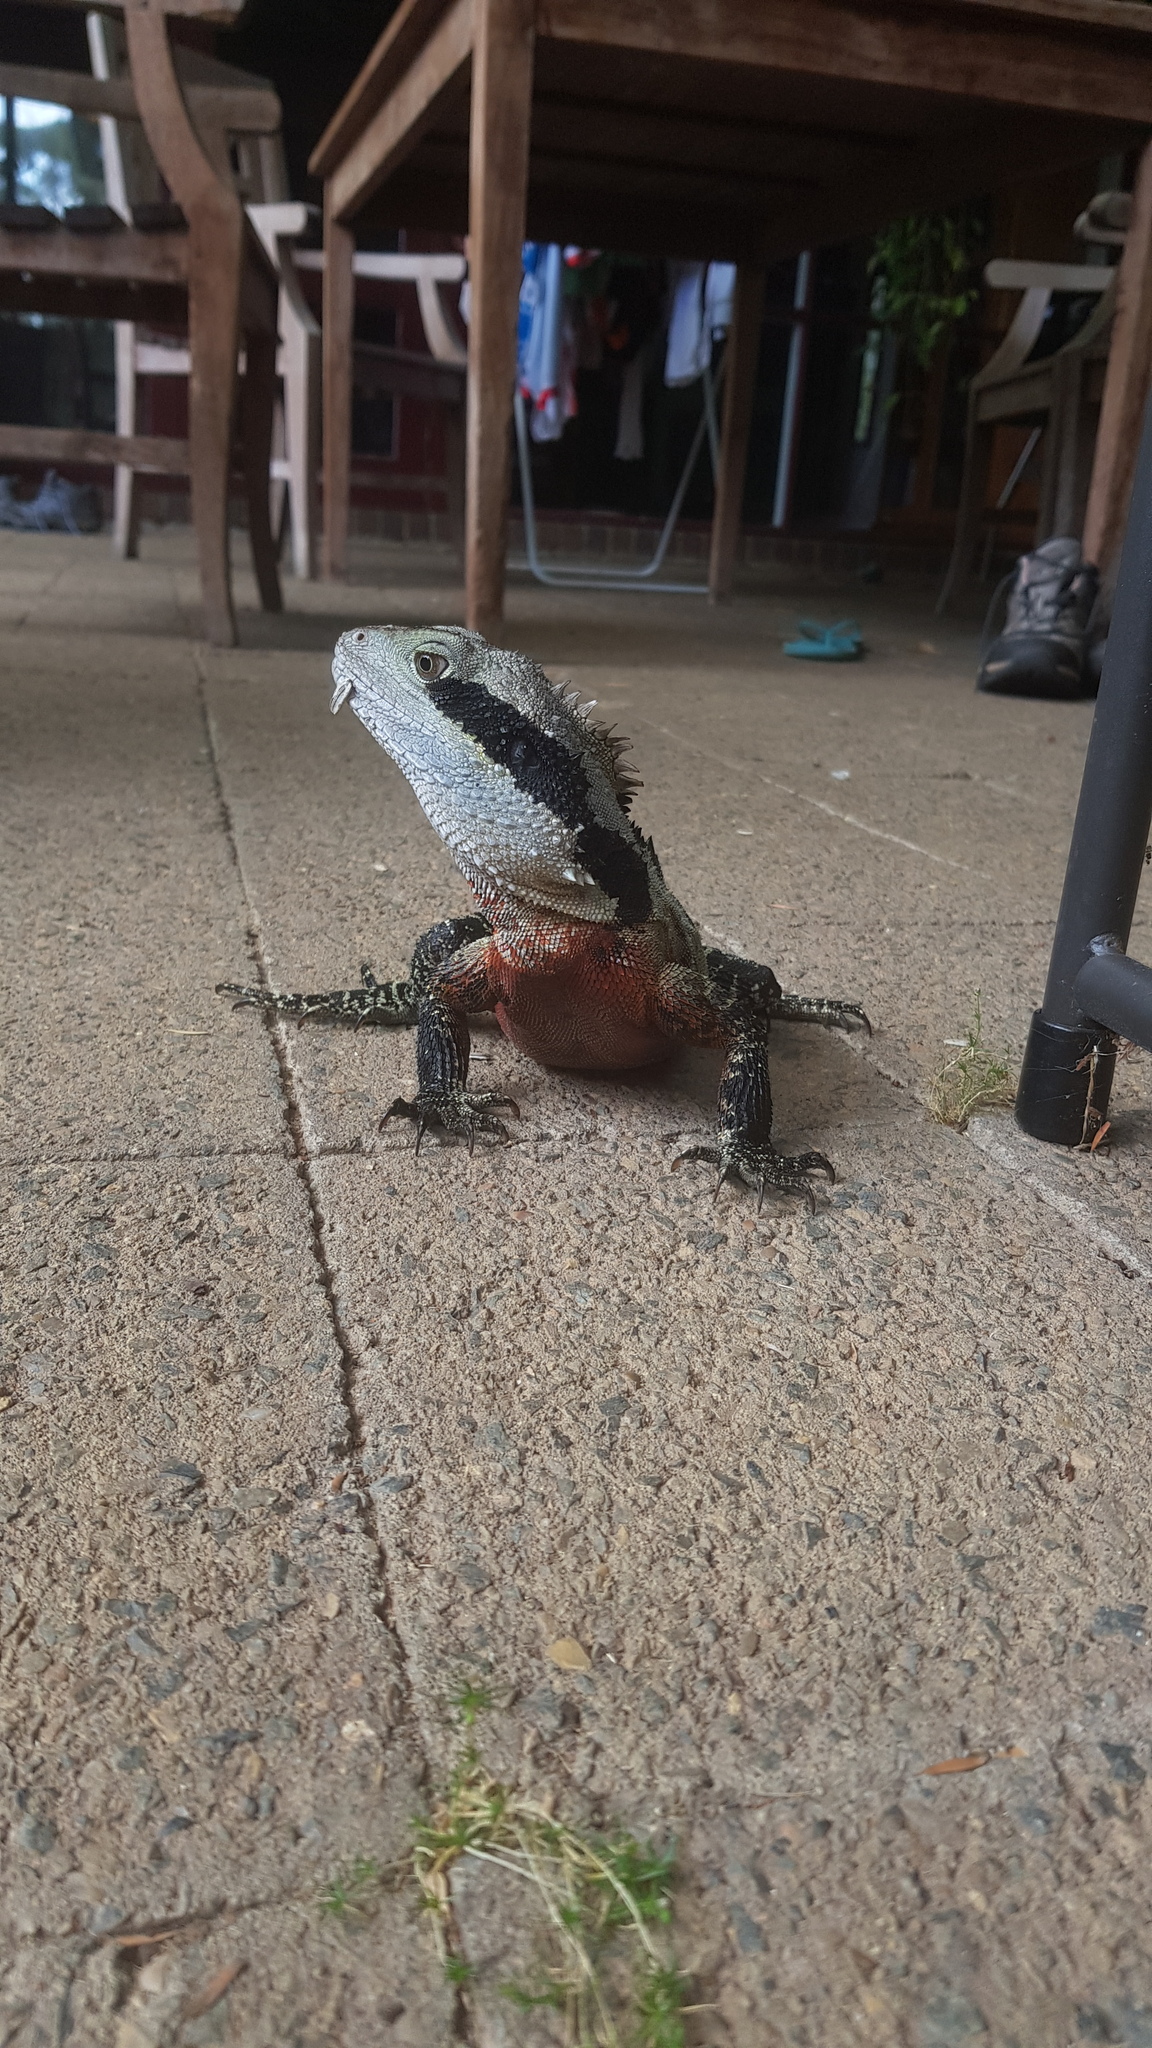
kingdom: Animalia
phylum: Chordata
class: Squamata
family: Agamidae
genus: Intellagama
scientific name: Intellagama lesueurii
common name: Eastern water dragon
